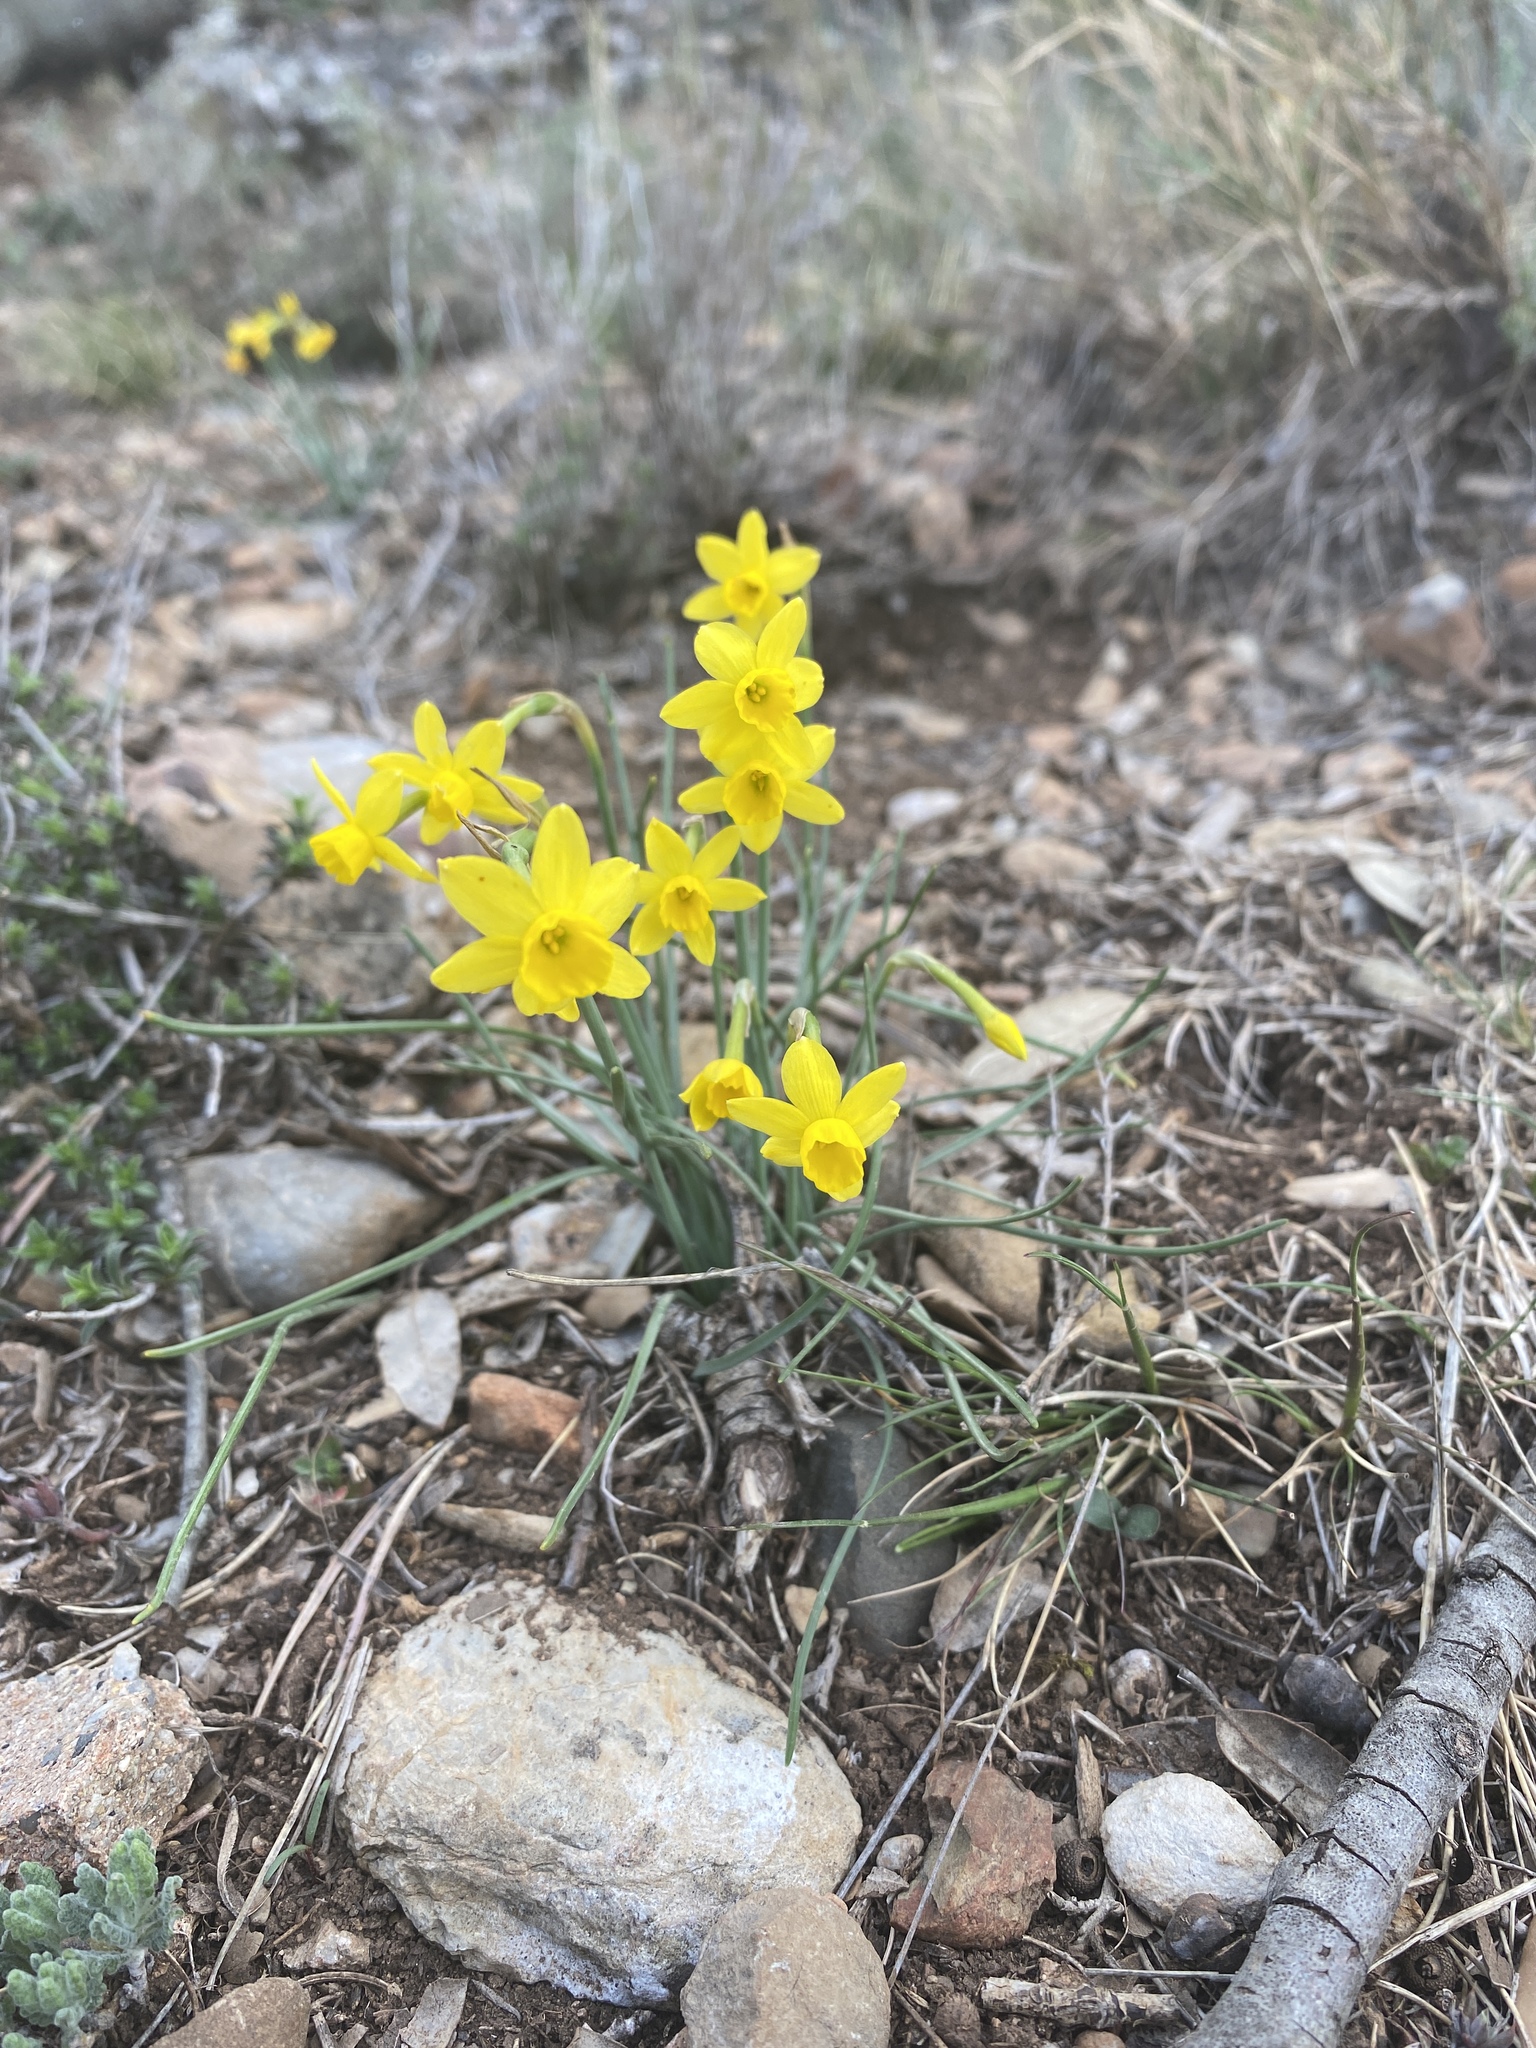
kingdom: Plantae
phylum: Tracheophyta
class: Liliopsida
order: Asparagales
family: Amaryllidaceae
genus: Narcissus
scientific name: Narcissus assoanus
